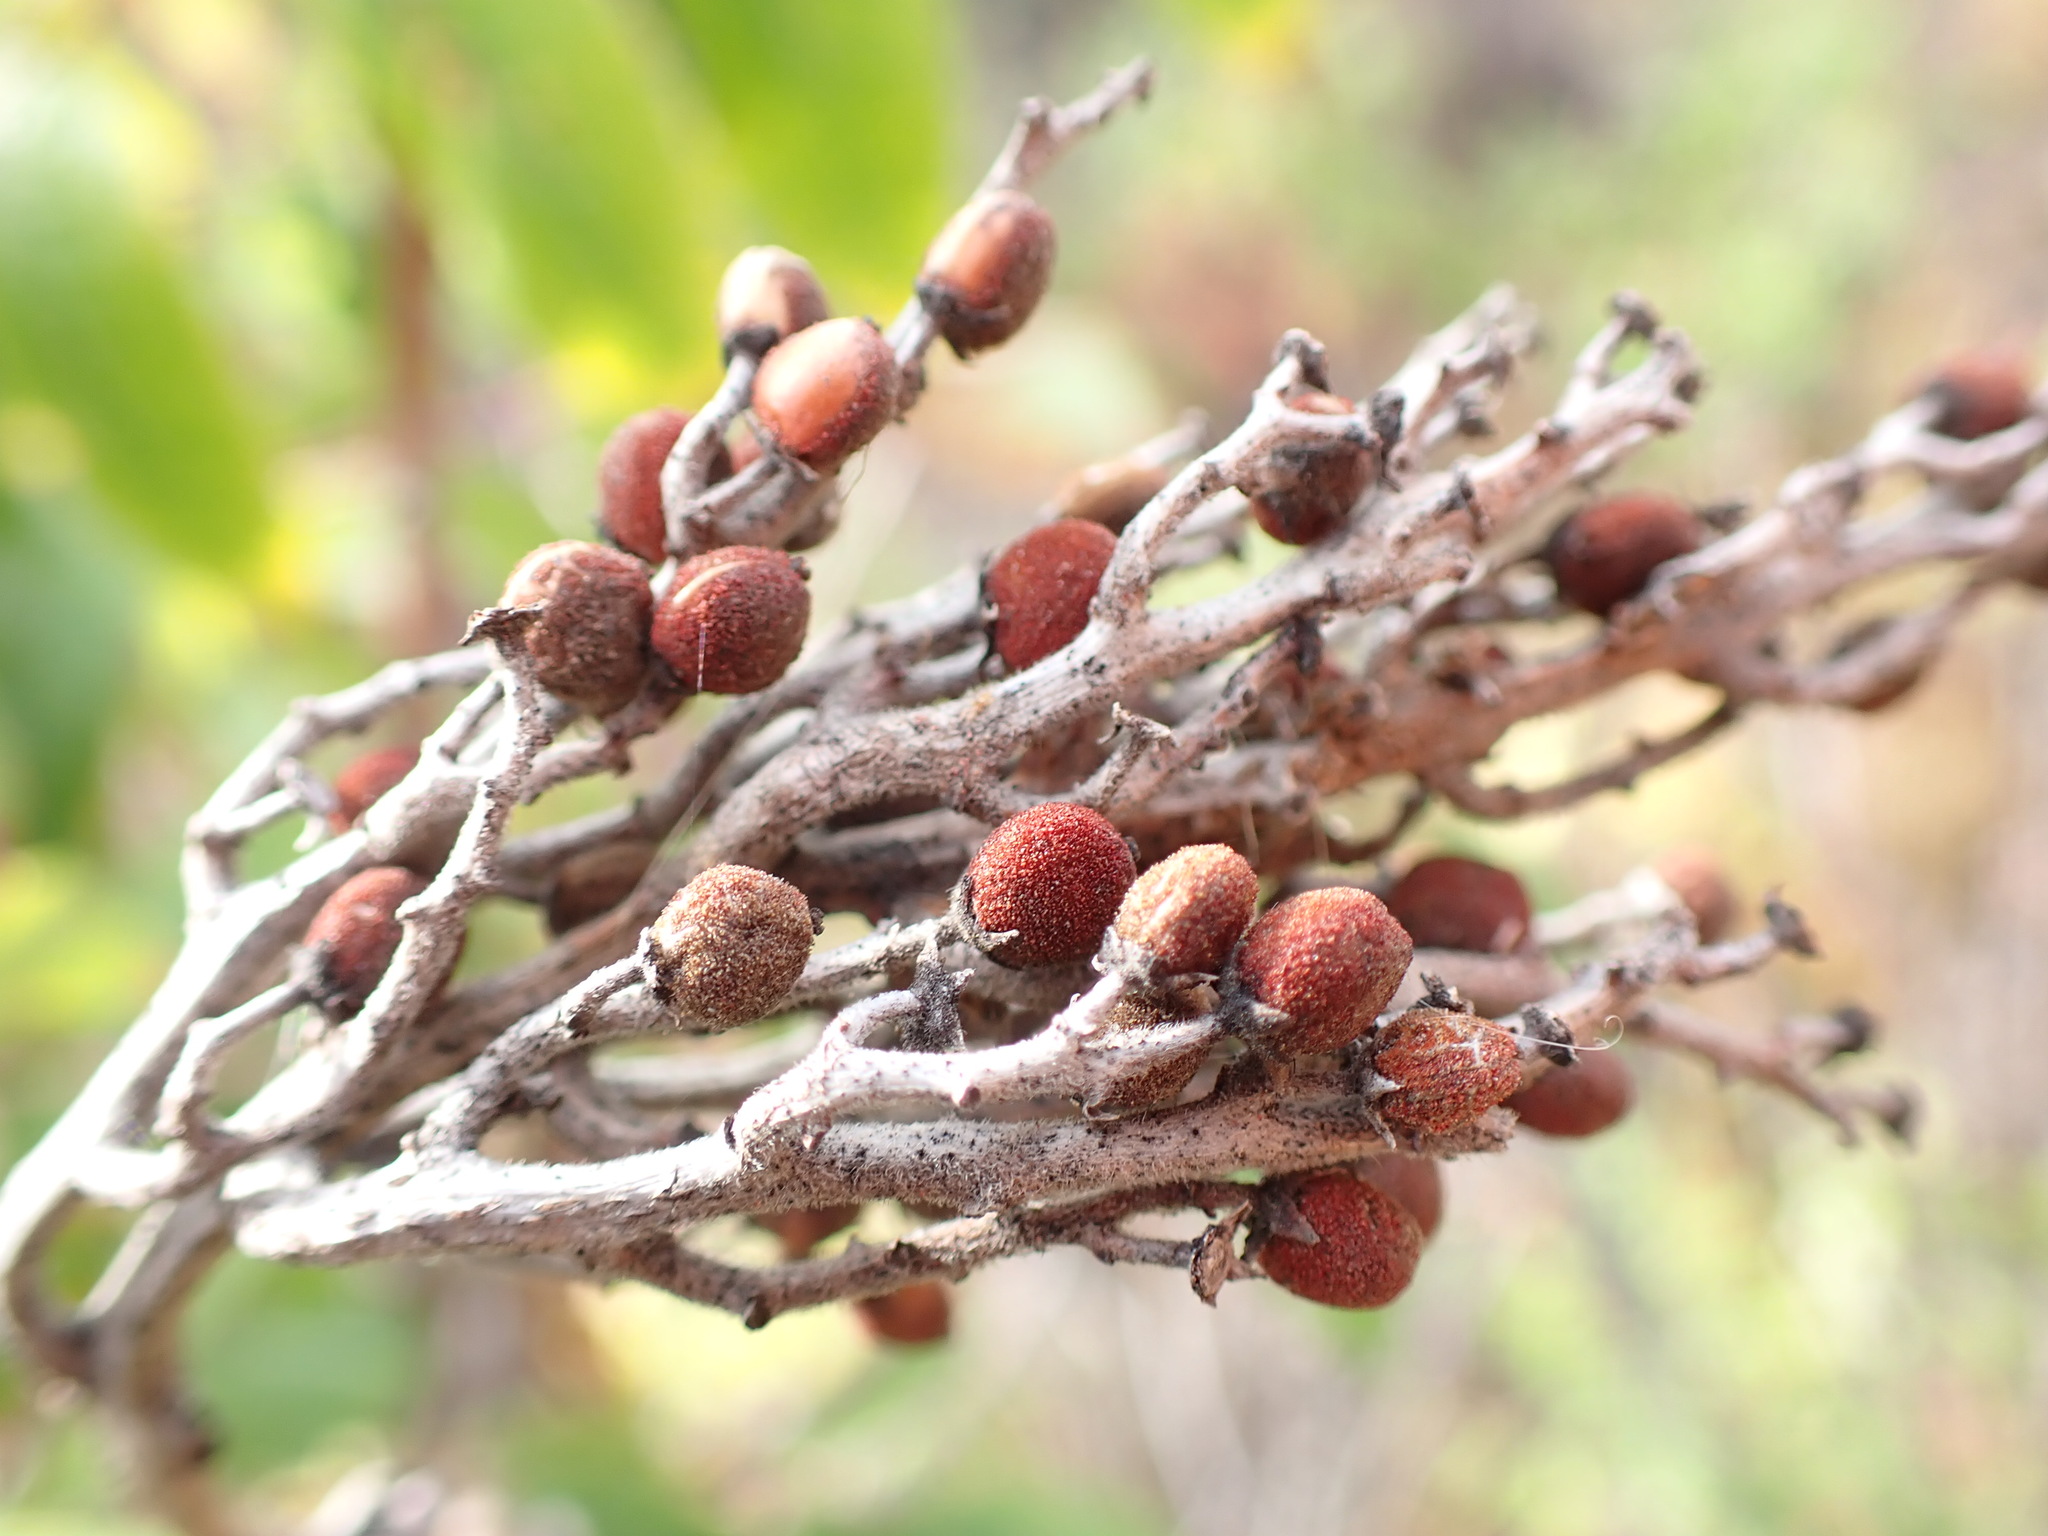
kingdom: Plantae
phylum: Tracheophyta
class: Magnoliopsida
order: Sapindales
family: Anacardiaceae
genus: Rhus
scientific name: Rhus glabra
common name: Scarlet sumac
